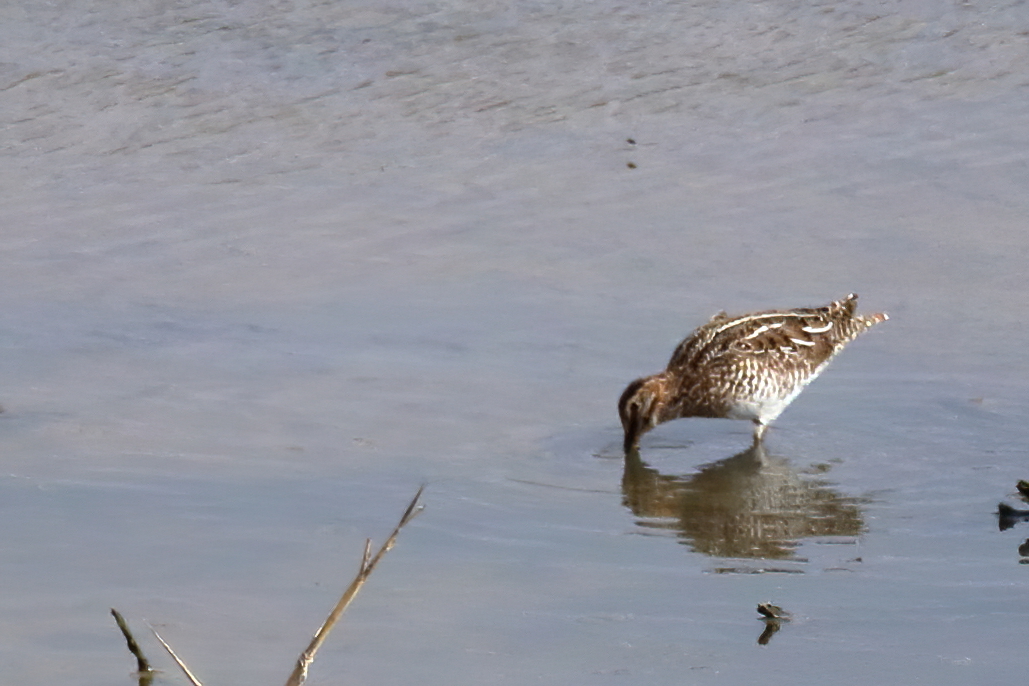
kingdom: Animalia
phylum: Chordata
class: Aves
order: Charadriiformes
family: Scolopacidae
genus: Gallinago
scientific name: Gallinago delicata
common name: Wilson's snipe
